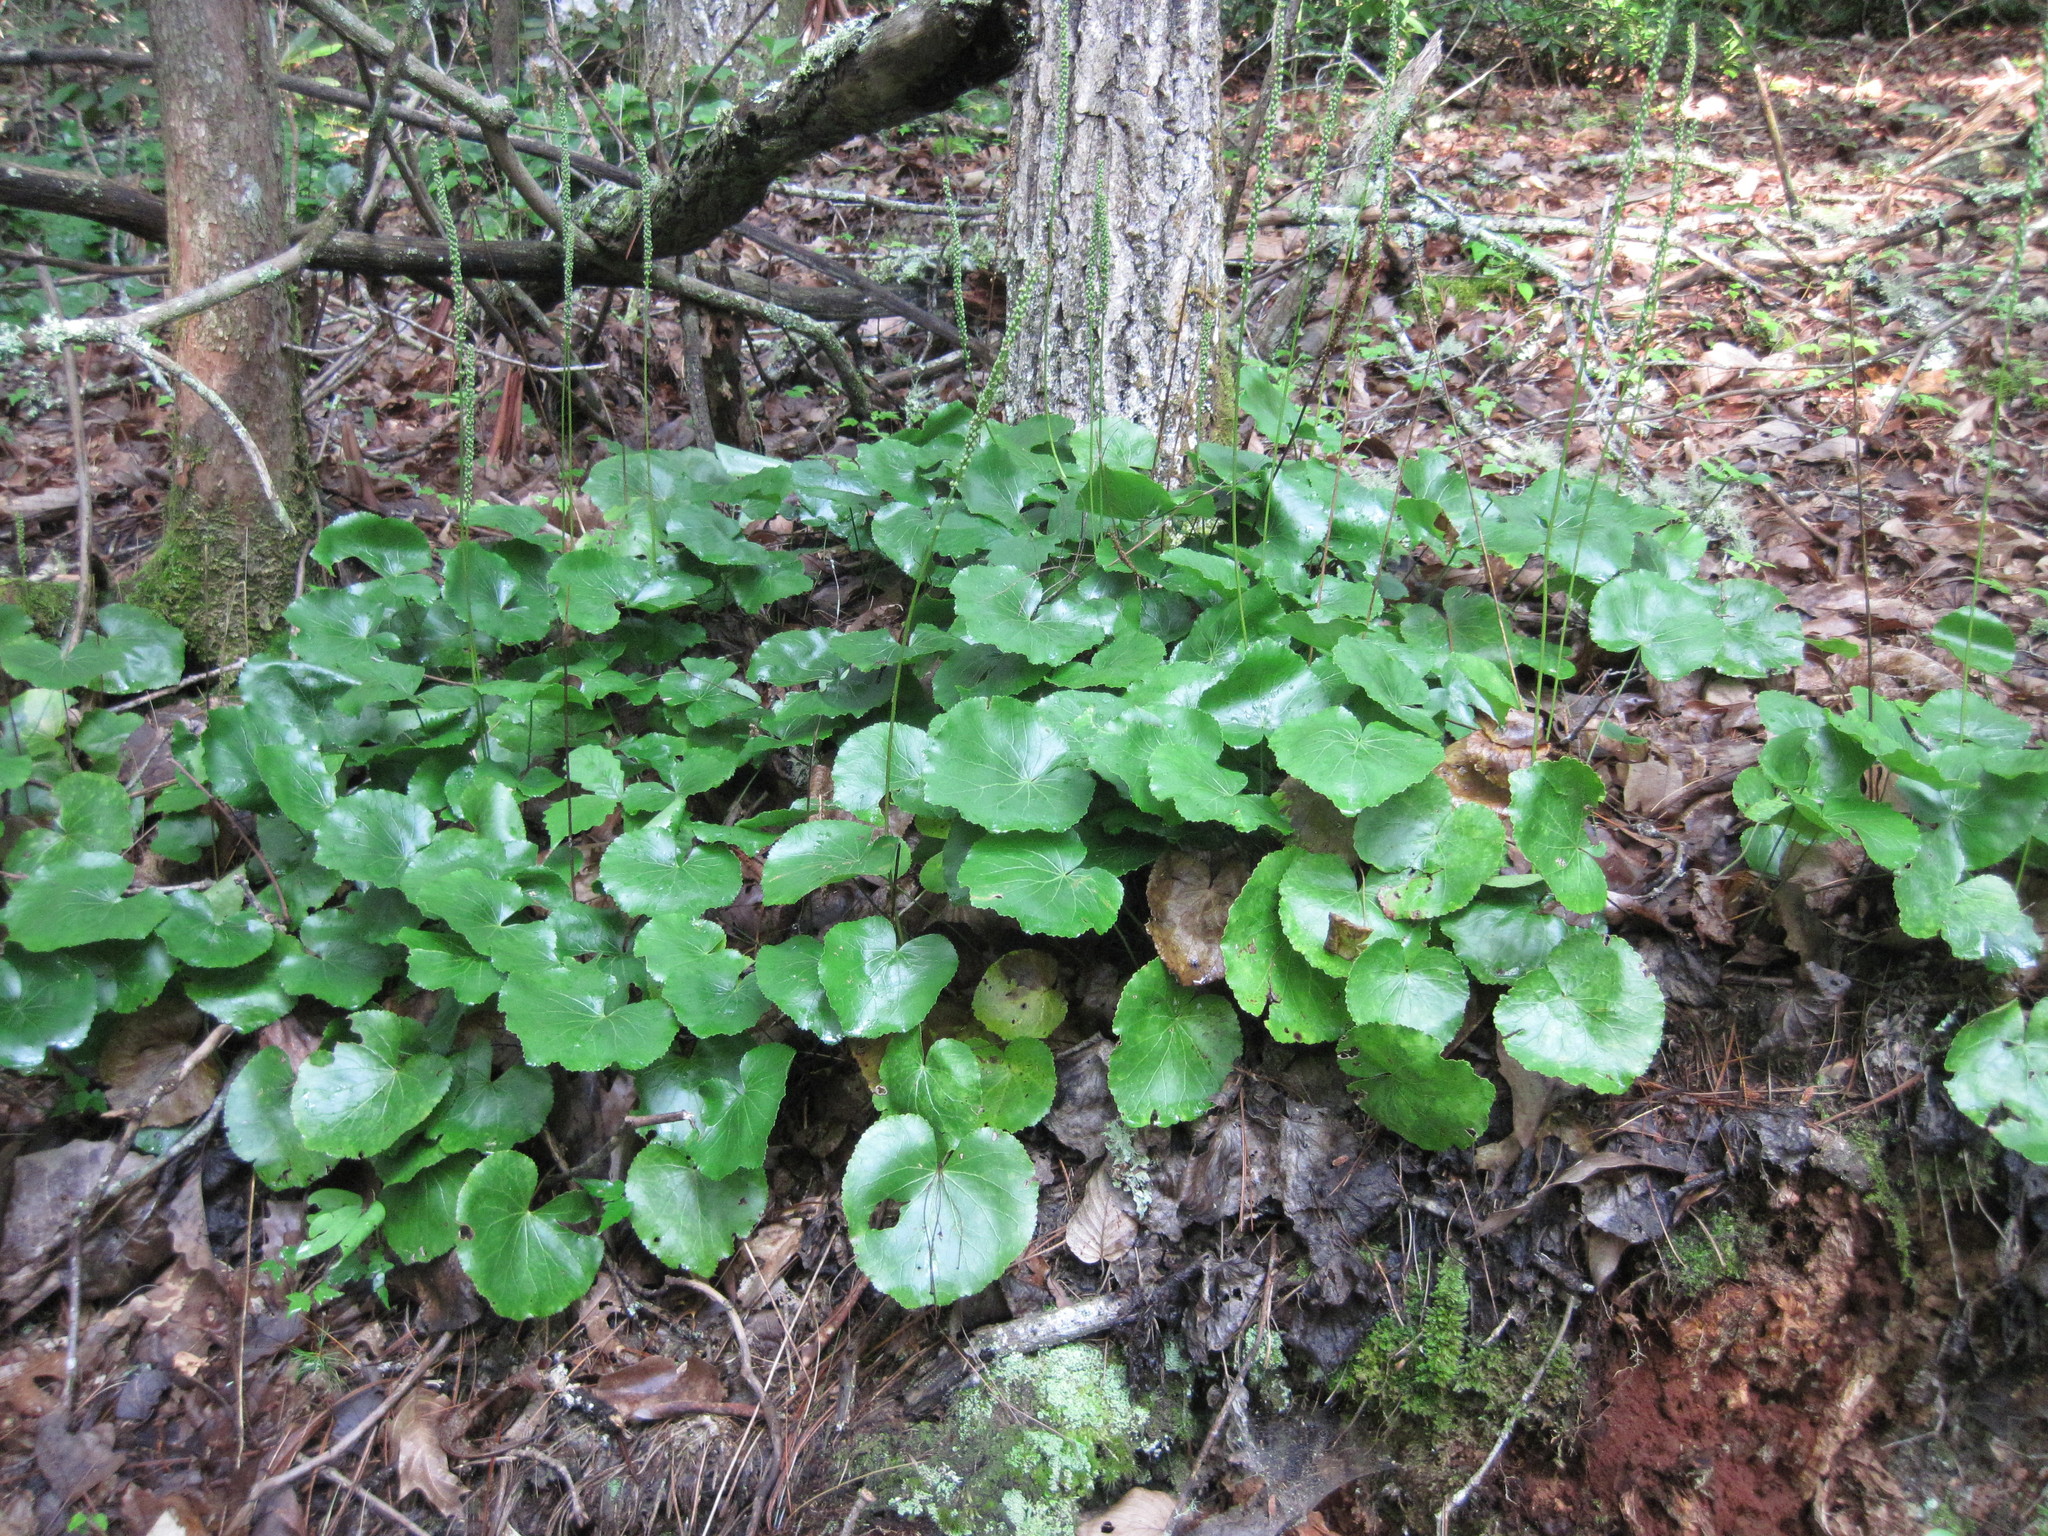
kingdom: Plantae
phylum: Tracheophyta
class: Magnoliopsida
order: Ericales
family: Diapensiaceae
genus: Galax
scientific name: Galax urceolata
